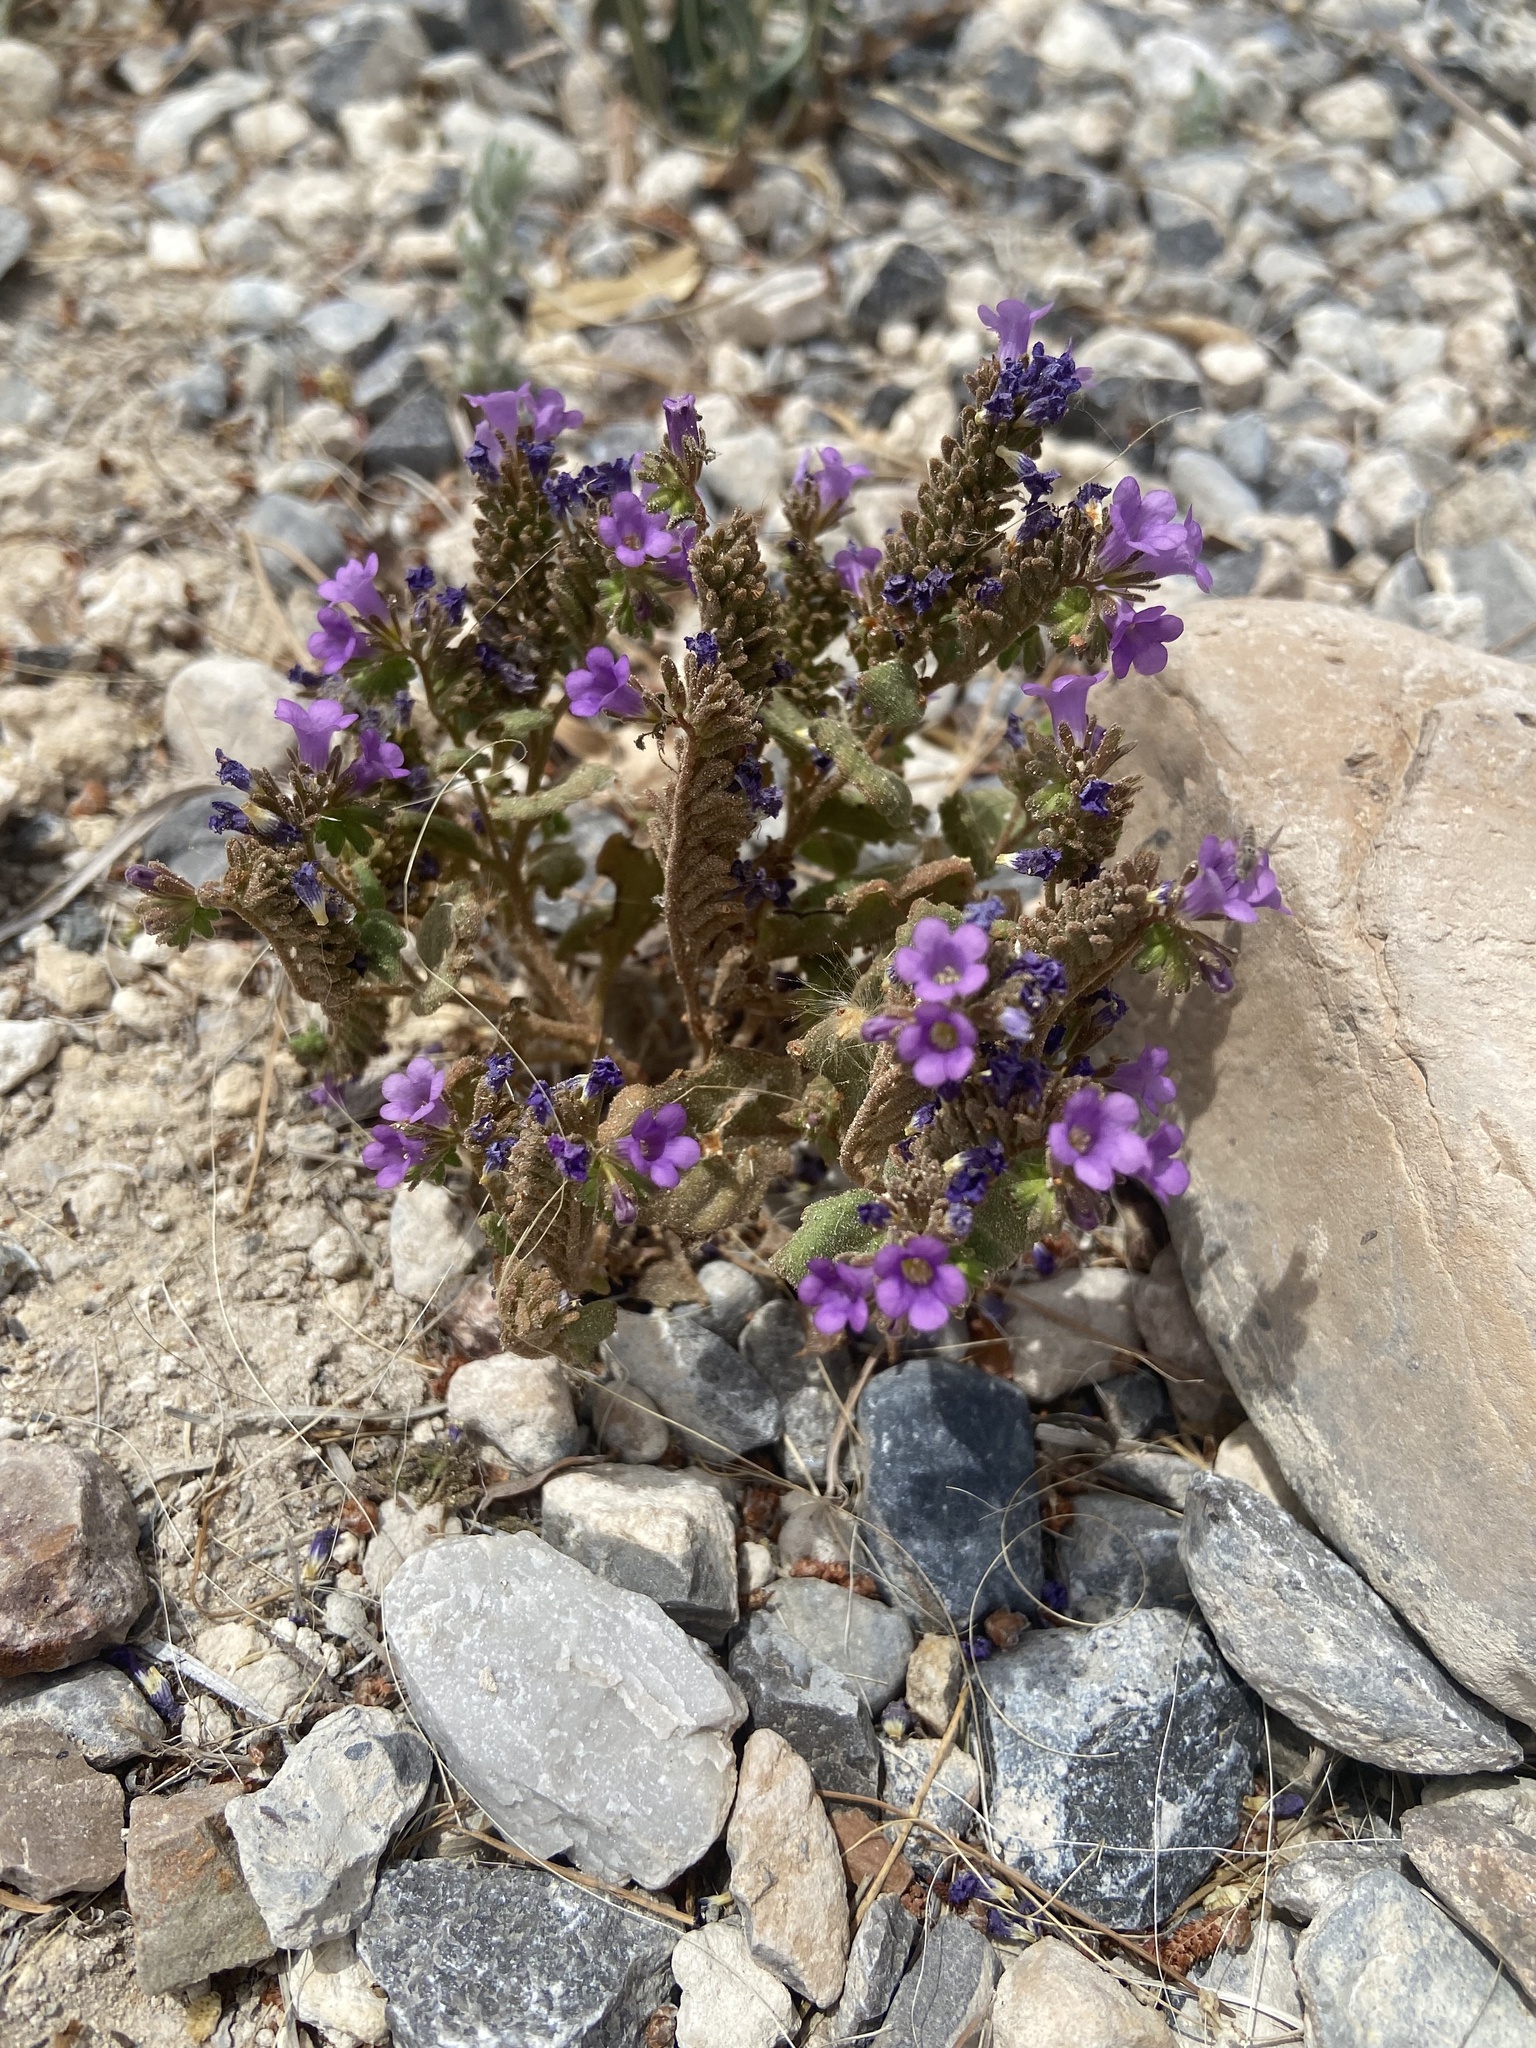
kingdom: Plantae
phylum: Tracheophyta
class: Magnoliopsida
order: Boraginales
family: Hydrophyllaceae
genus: Phacelia
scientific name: Phacelia pulchella
